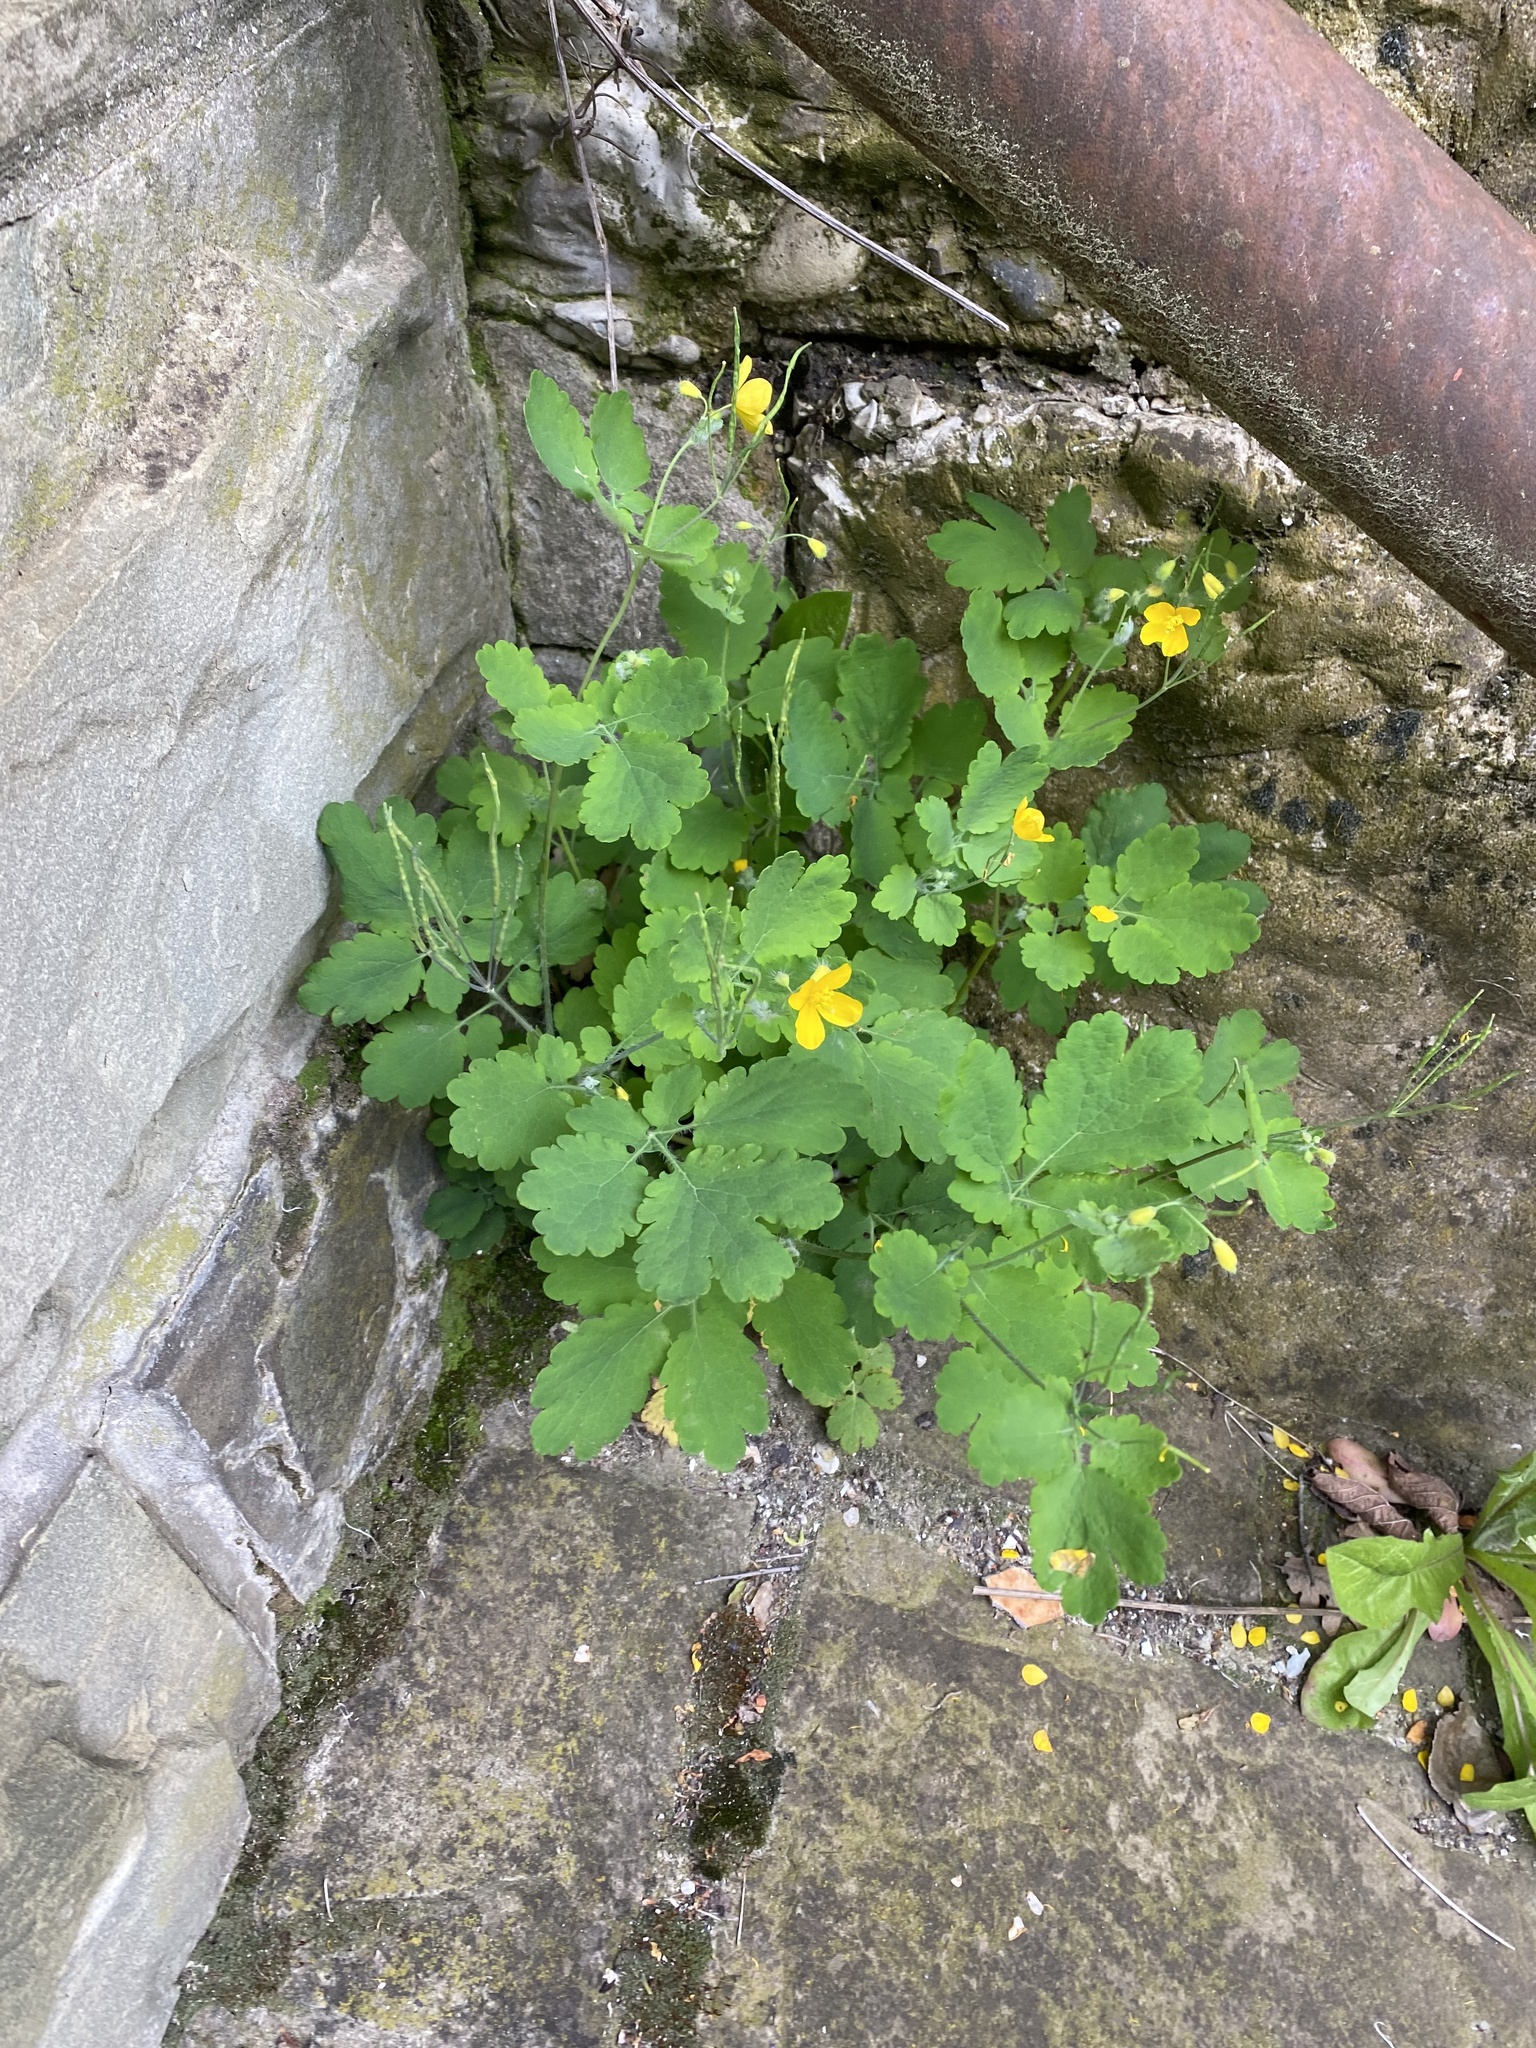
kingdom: Plantae
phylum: Tracheophyta
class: Magnoliopsida
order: Ranunculales
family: Papaveraceae
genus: Chelidonium
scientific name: Chelidonium majus
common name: Greater celandine
